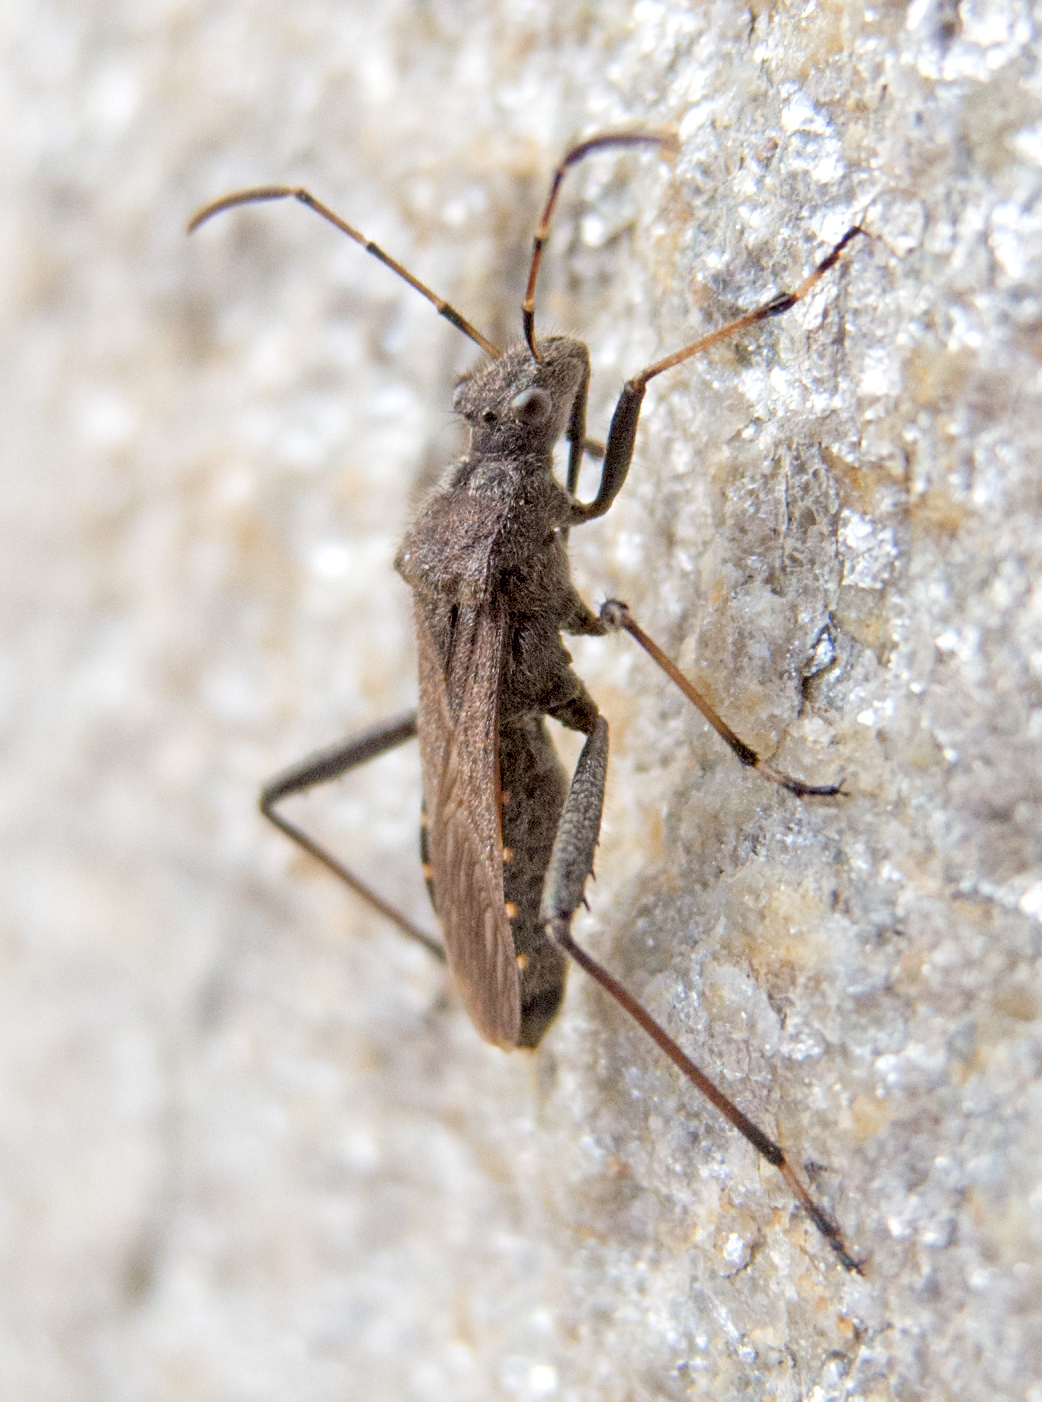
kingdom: Animalia
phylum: Arthropoda
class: Insecta
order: Hemiptera
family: Alydidae
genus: Alydus
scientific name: Alydus calcaratus
